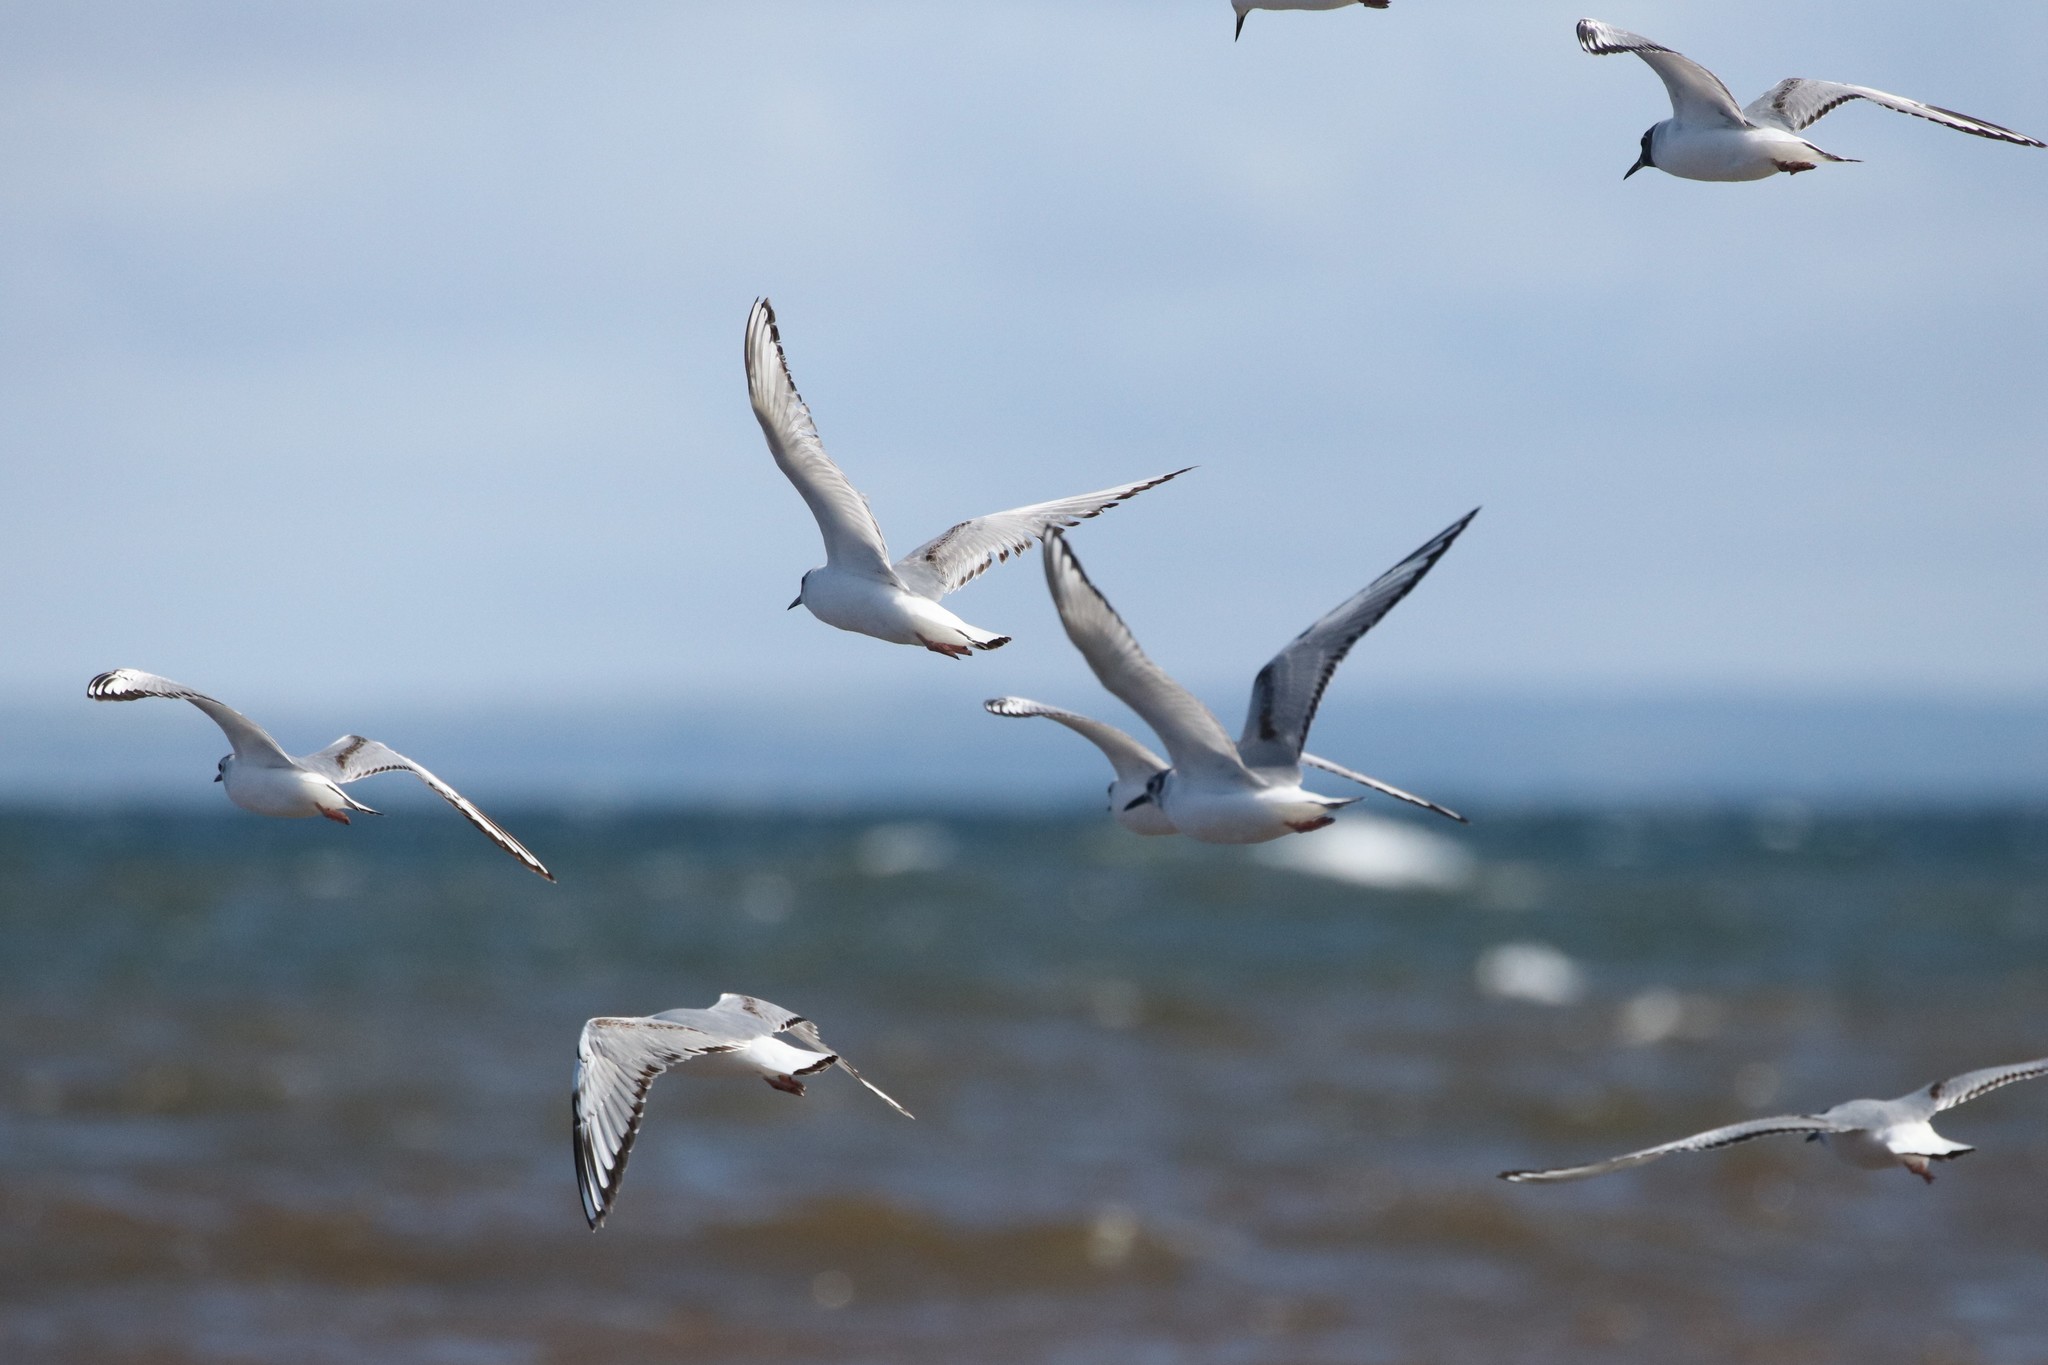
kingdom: Animalia
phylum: Chordata
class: Aves
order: Charadriiformes
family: Laridae
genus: Chroicocephalus
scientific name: Chroicocephalus philadelphia
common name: Bonaparte's gull
